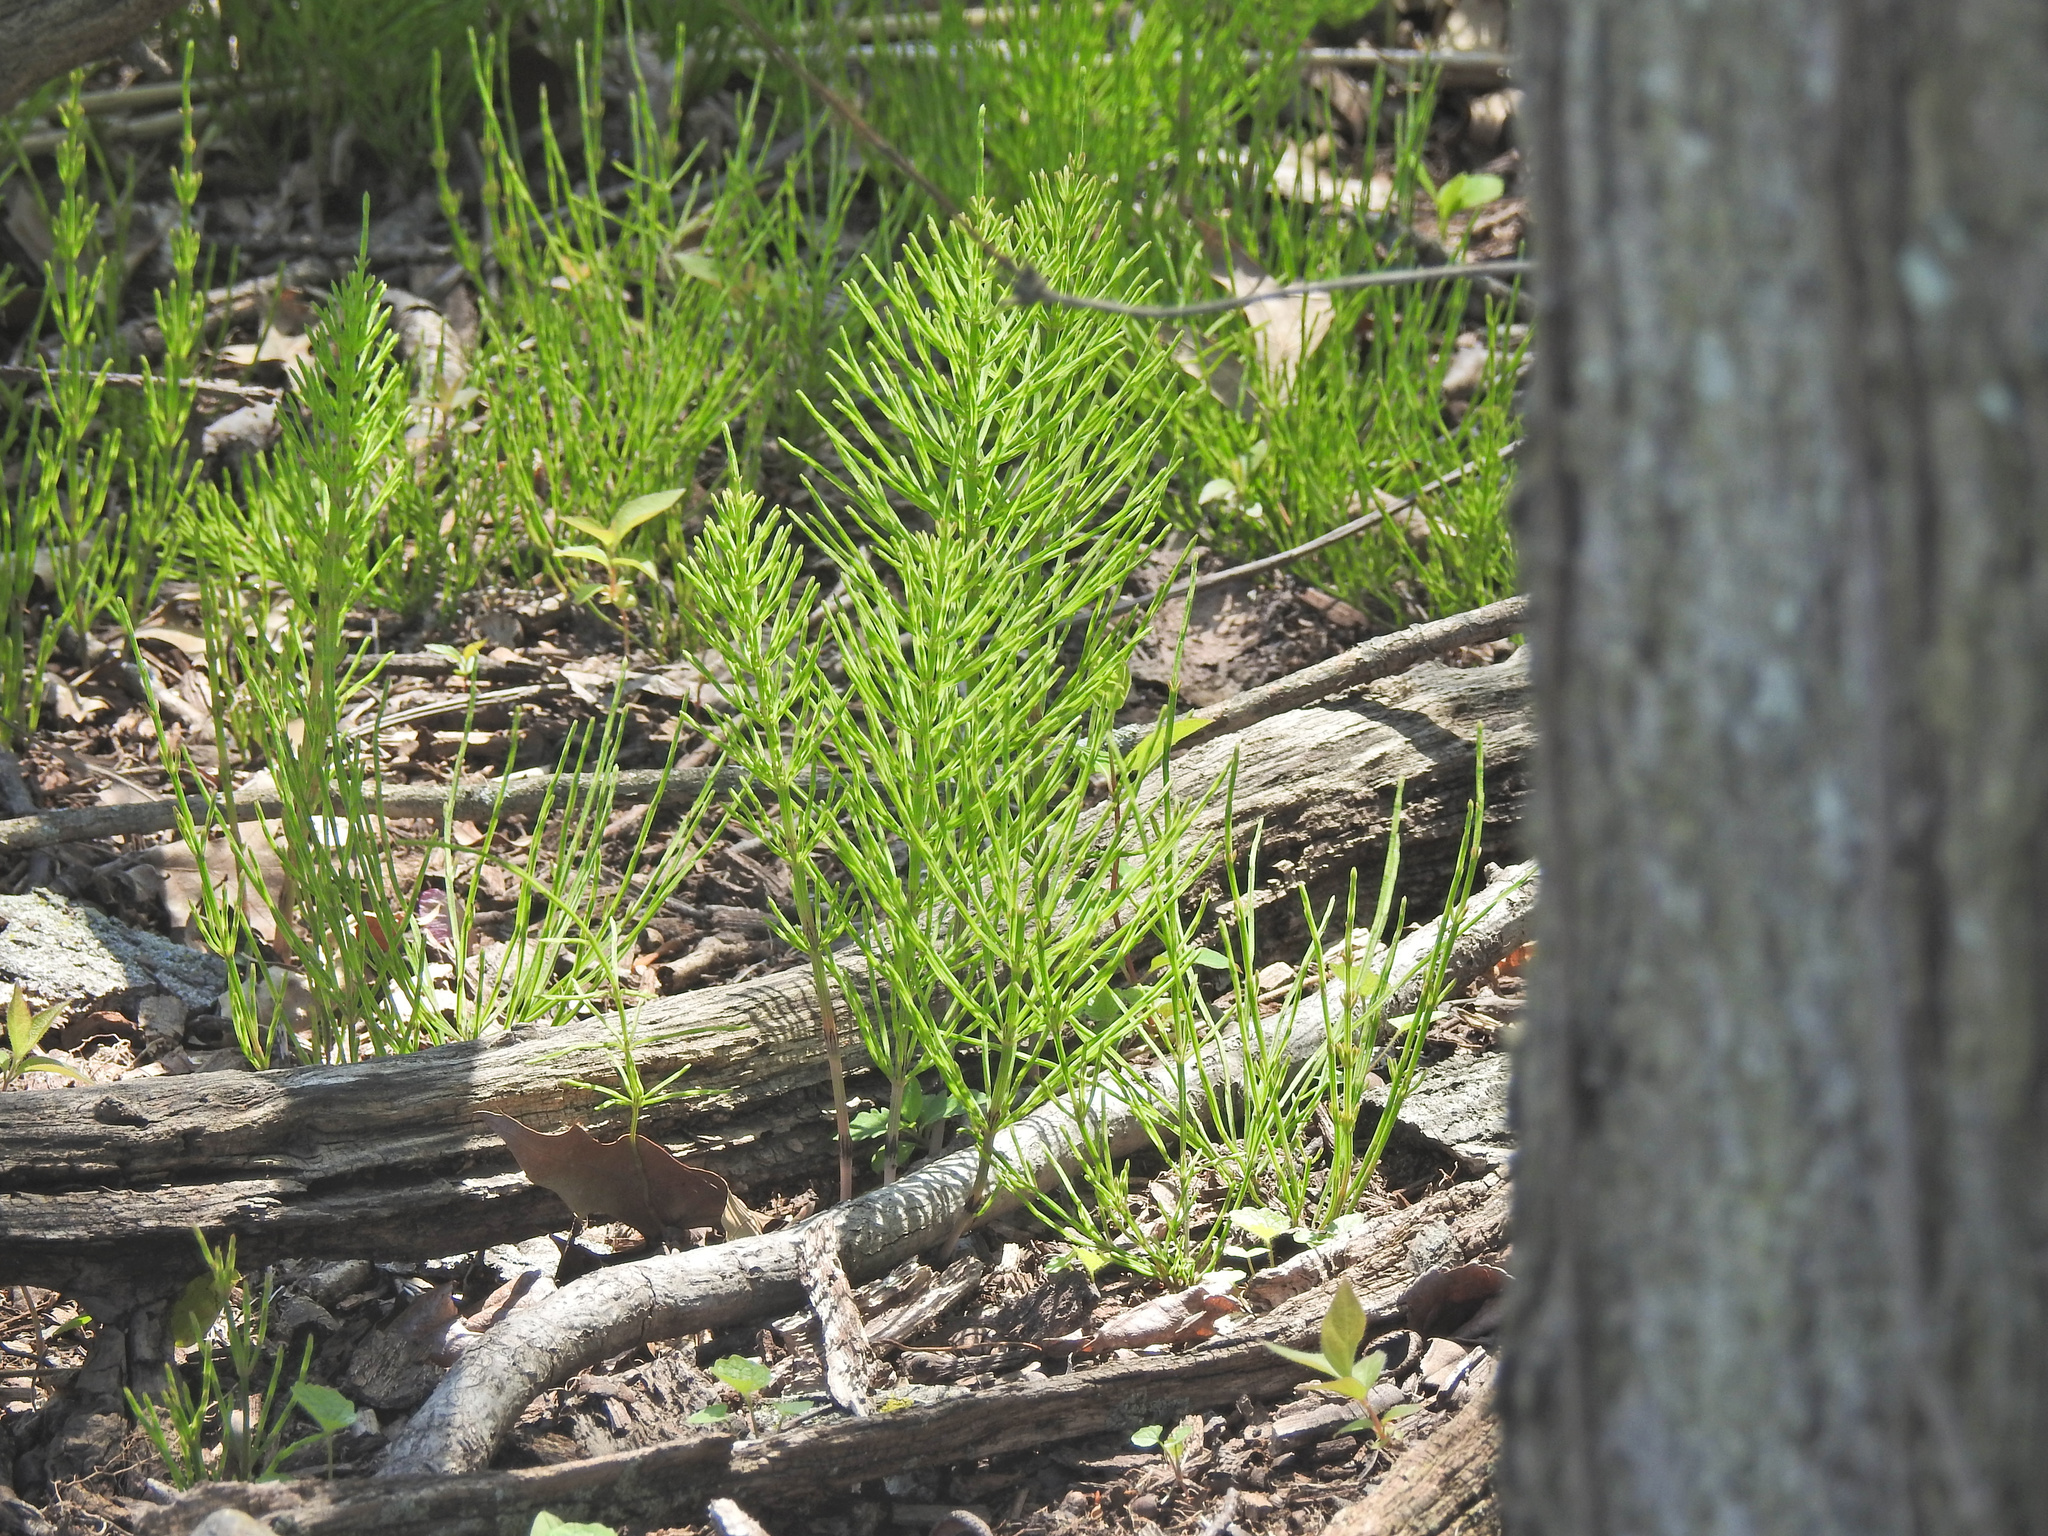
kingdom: Plantae
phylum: Tracheophyta
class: Polypodiopsida
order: Equisetales
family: Equisetaceae
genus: Equisetum
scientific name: Equisetum arvense
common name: Field horsetail
